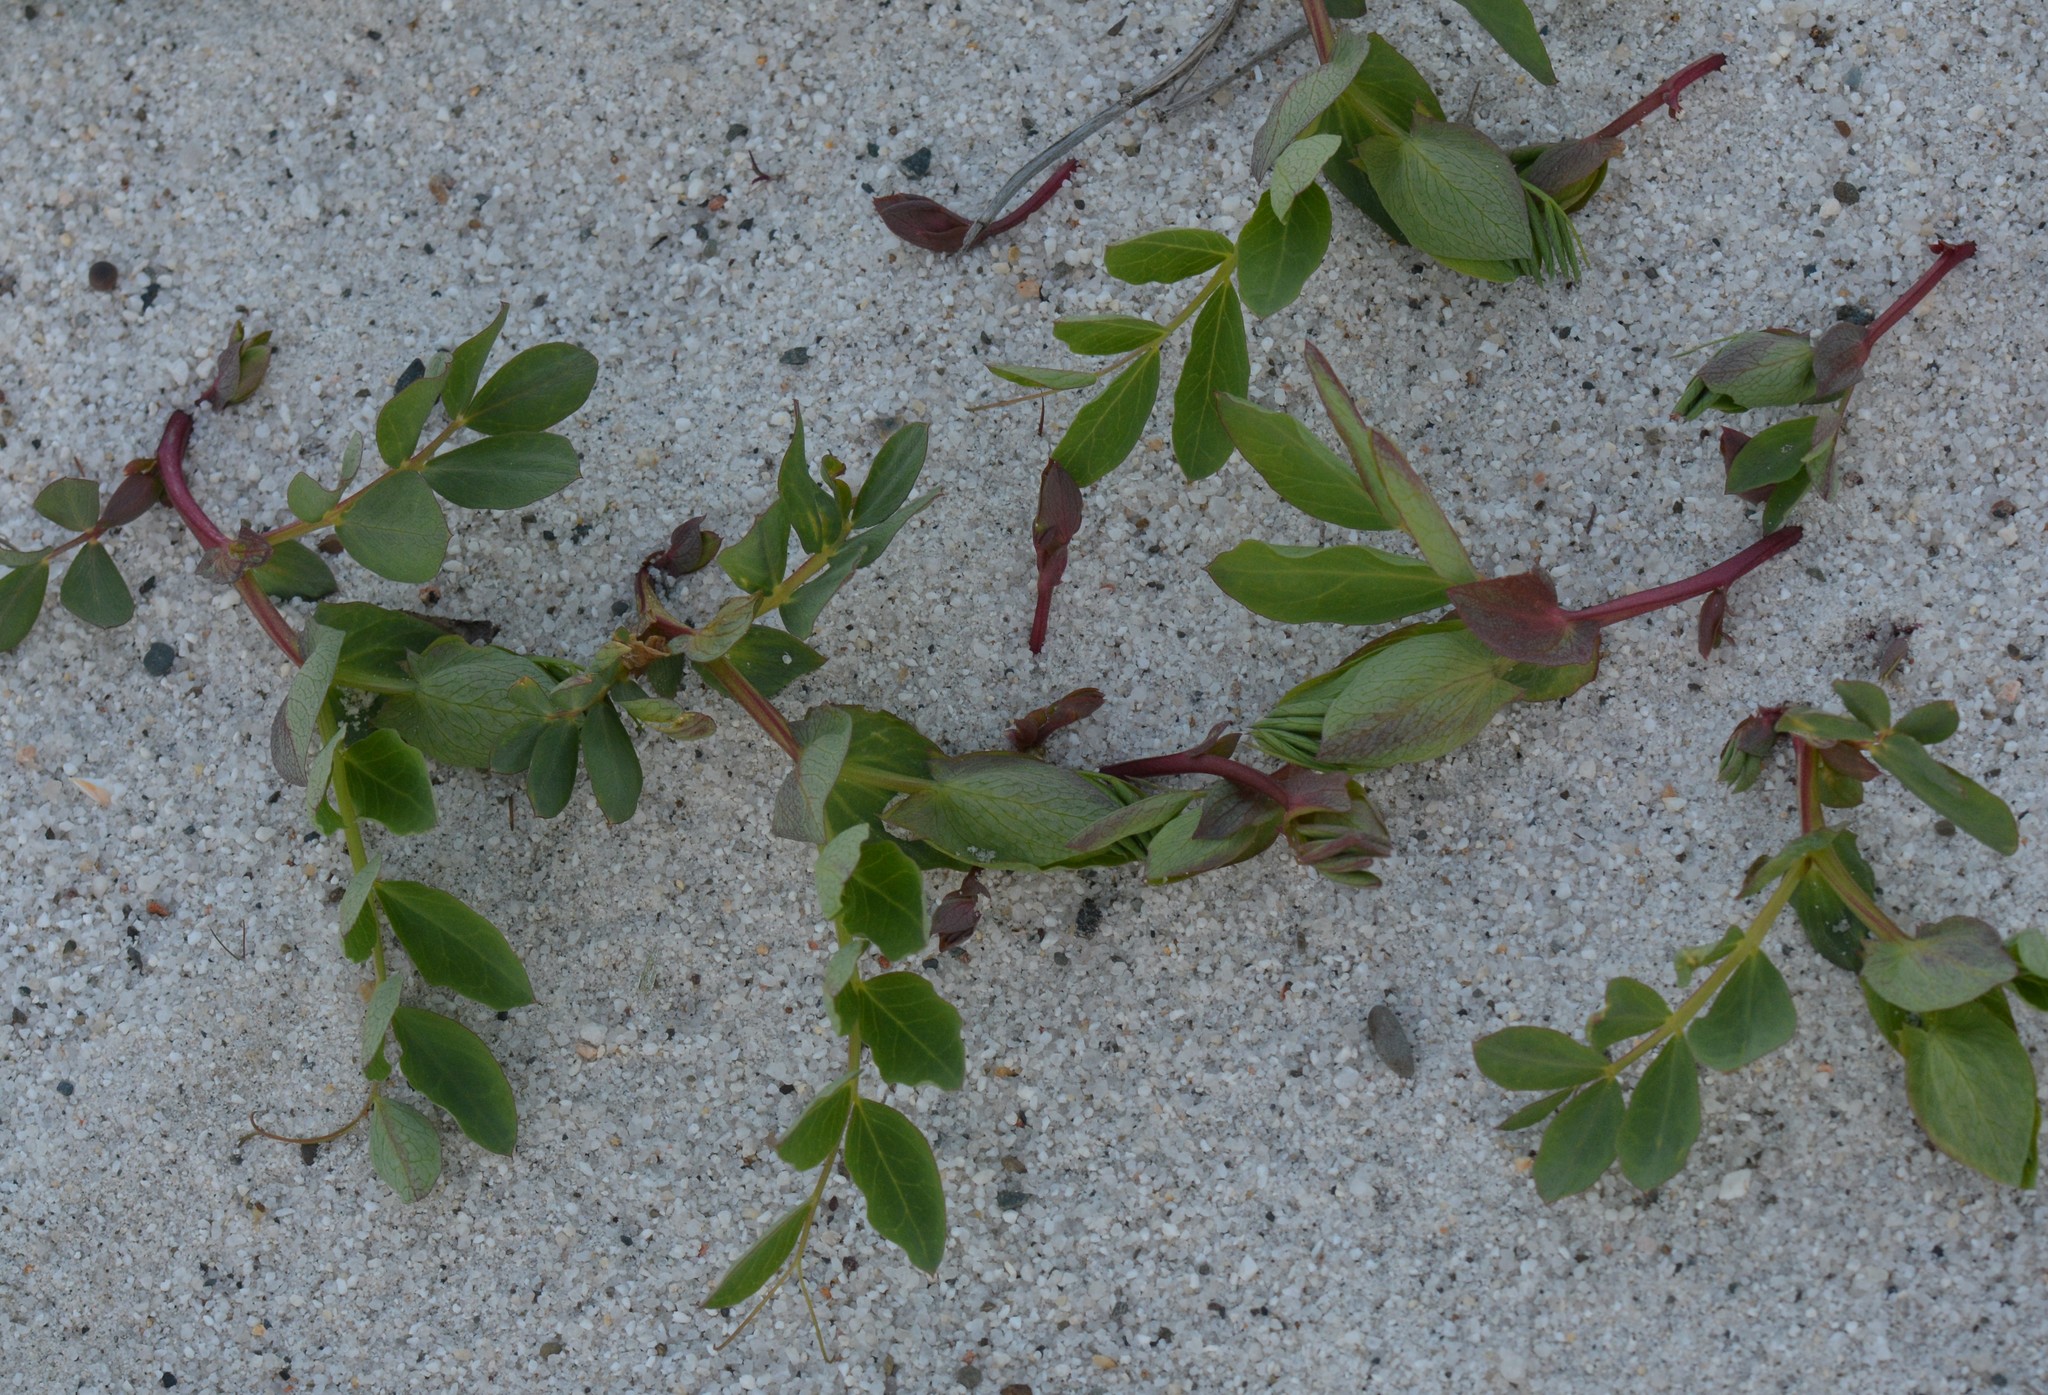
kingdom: Plantae
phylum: Tracheophyta
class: Magnoliopsida
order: Fabales
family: Fabaceae
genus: Lathyrus
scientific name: Lathyrus japonicus
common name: Sea pea
